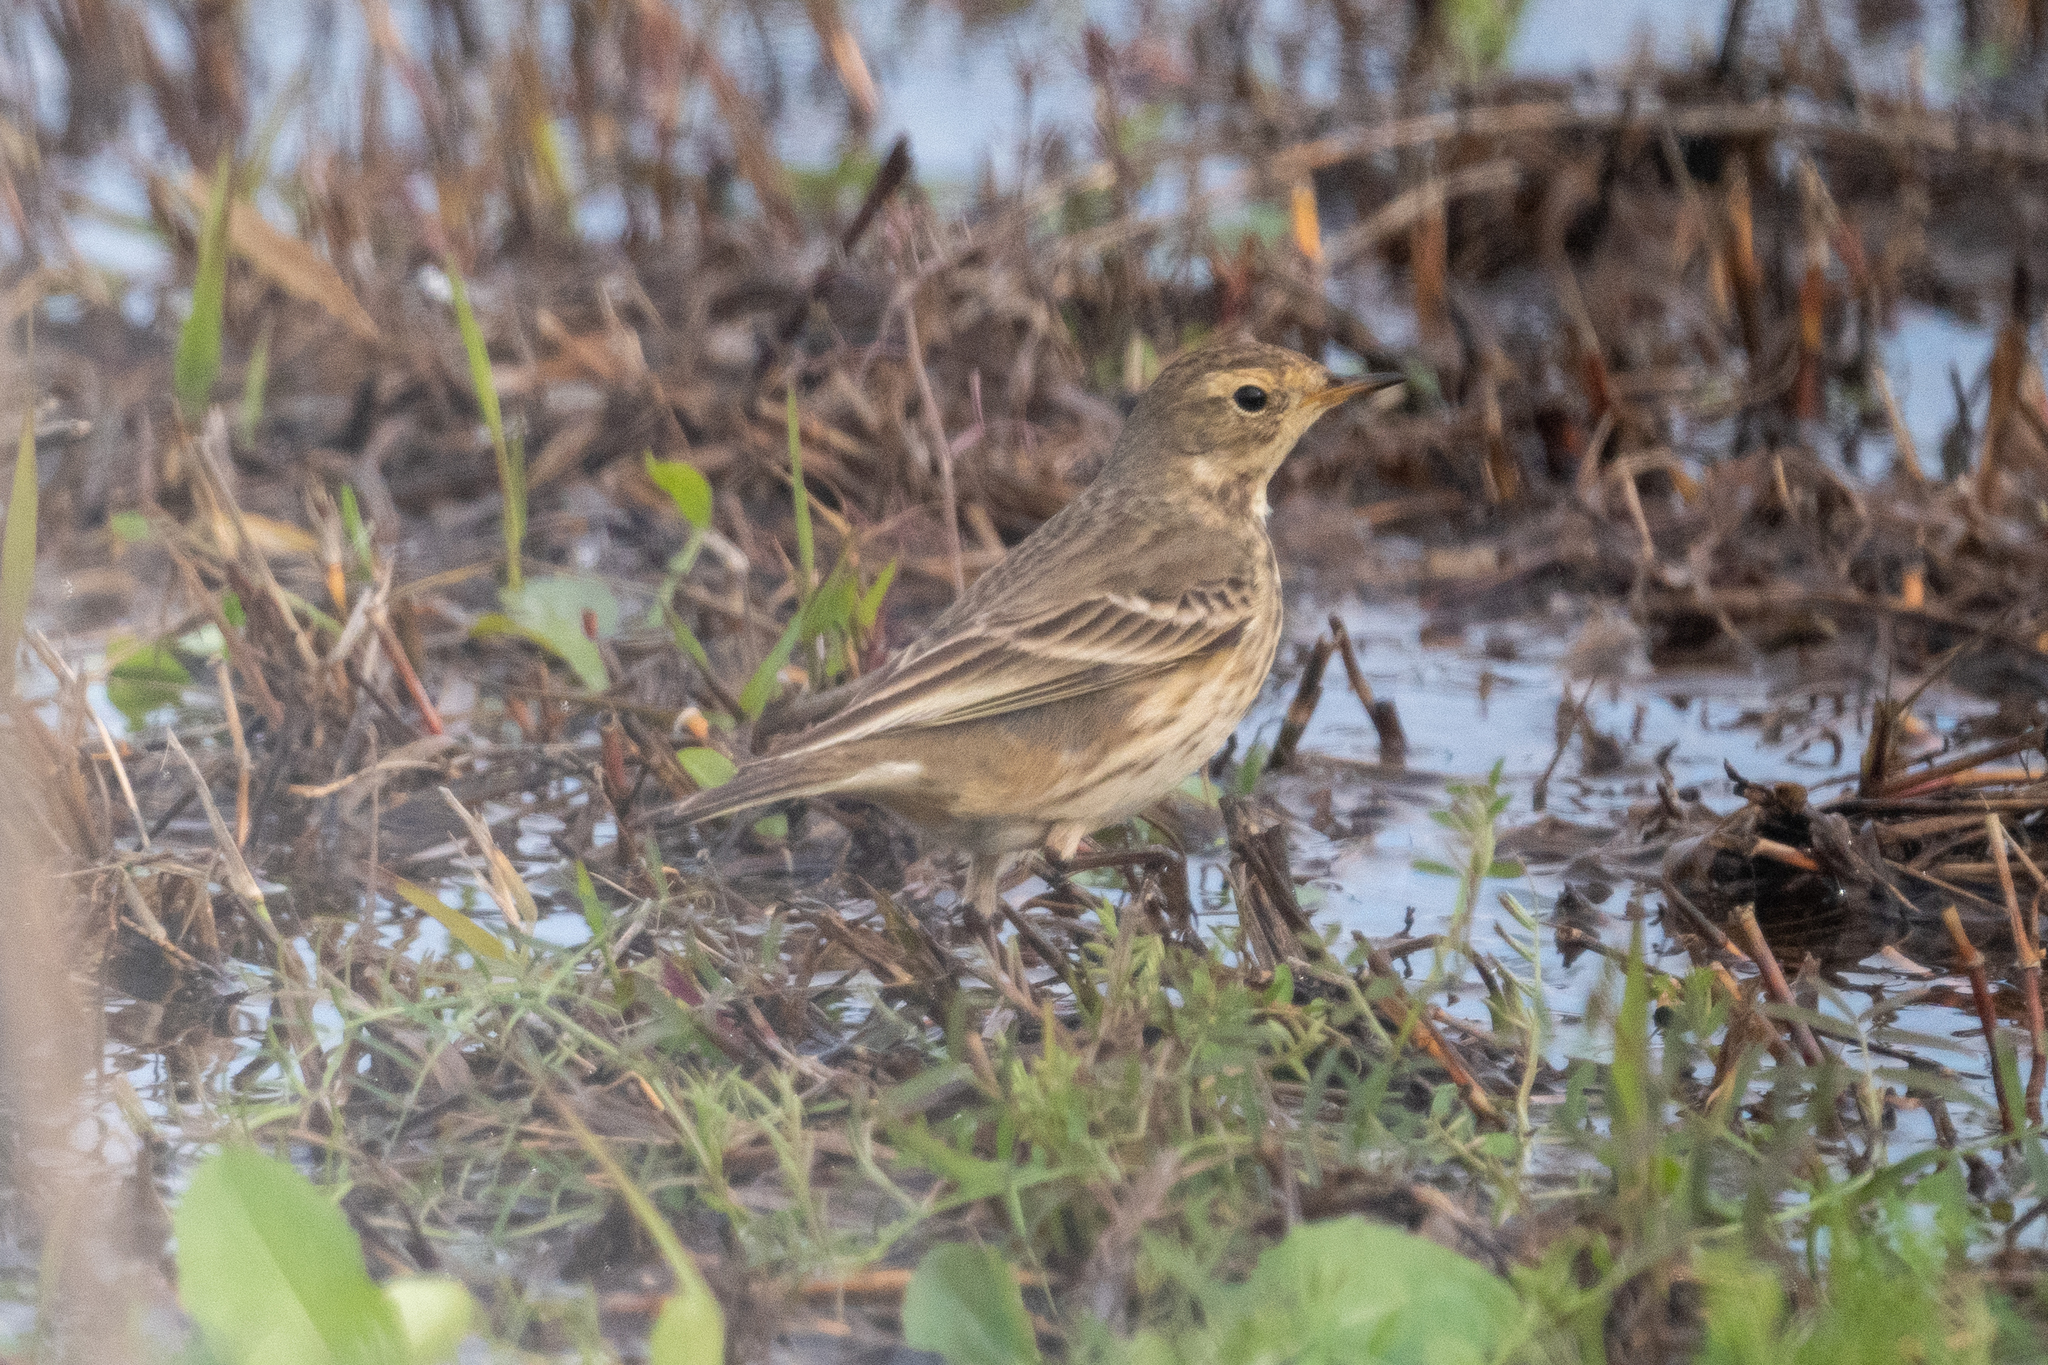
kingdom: Animalia
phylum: Chordata
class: Aves
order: Passeriformes
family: Motacillidae
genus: Anthus
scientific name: Anthus rubescens
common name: Buff-bellied pipit
